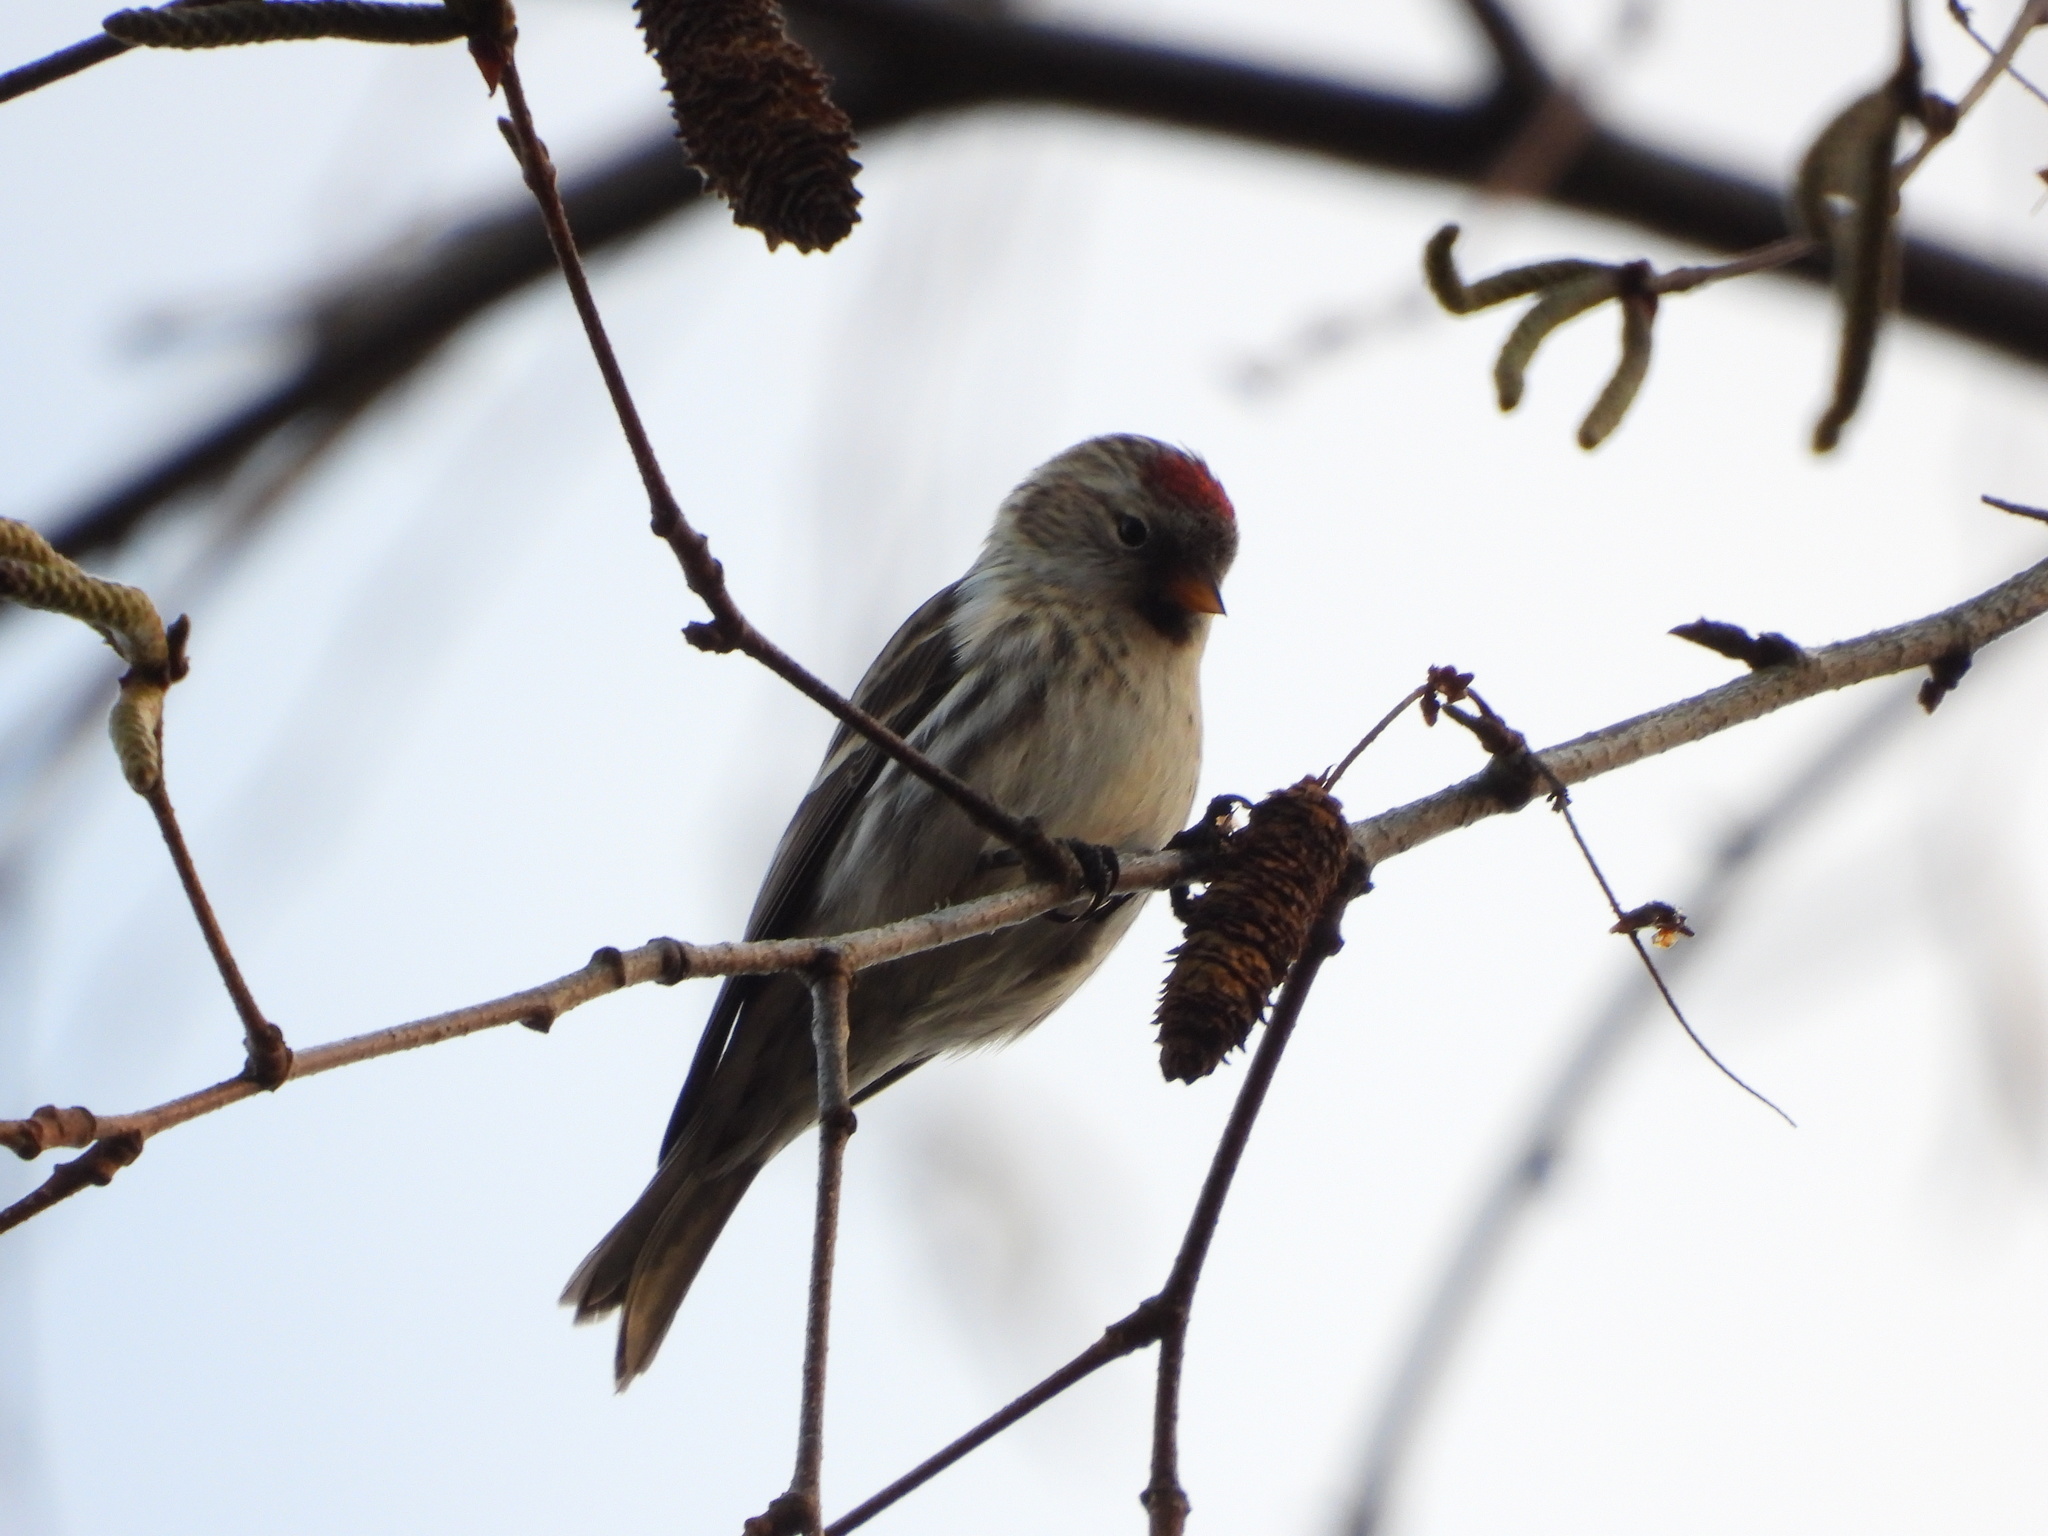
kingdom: Animalia
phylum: Chordata
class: Aves
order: Passeriformes
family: Fringillidae
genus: Acanthis
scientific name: Acanthis flammea
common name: Common redpoll
